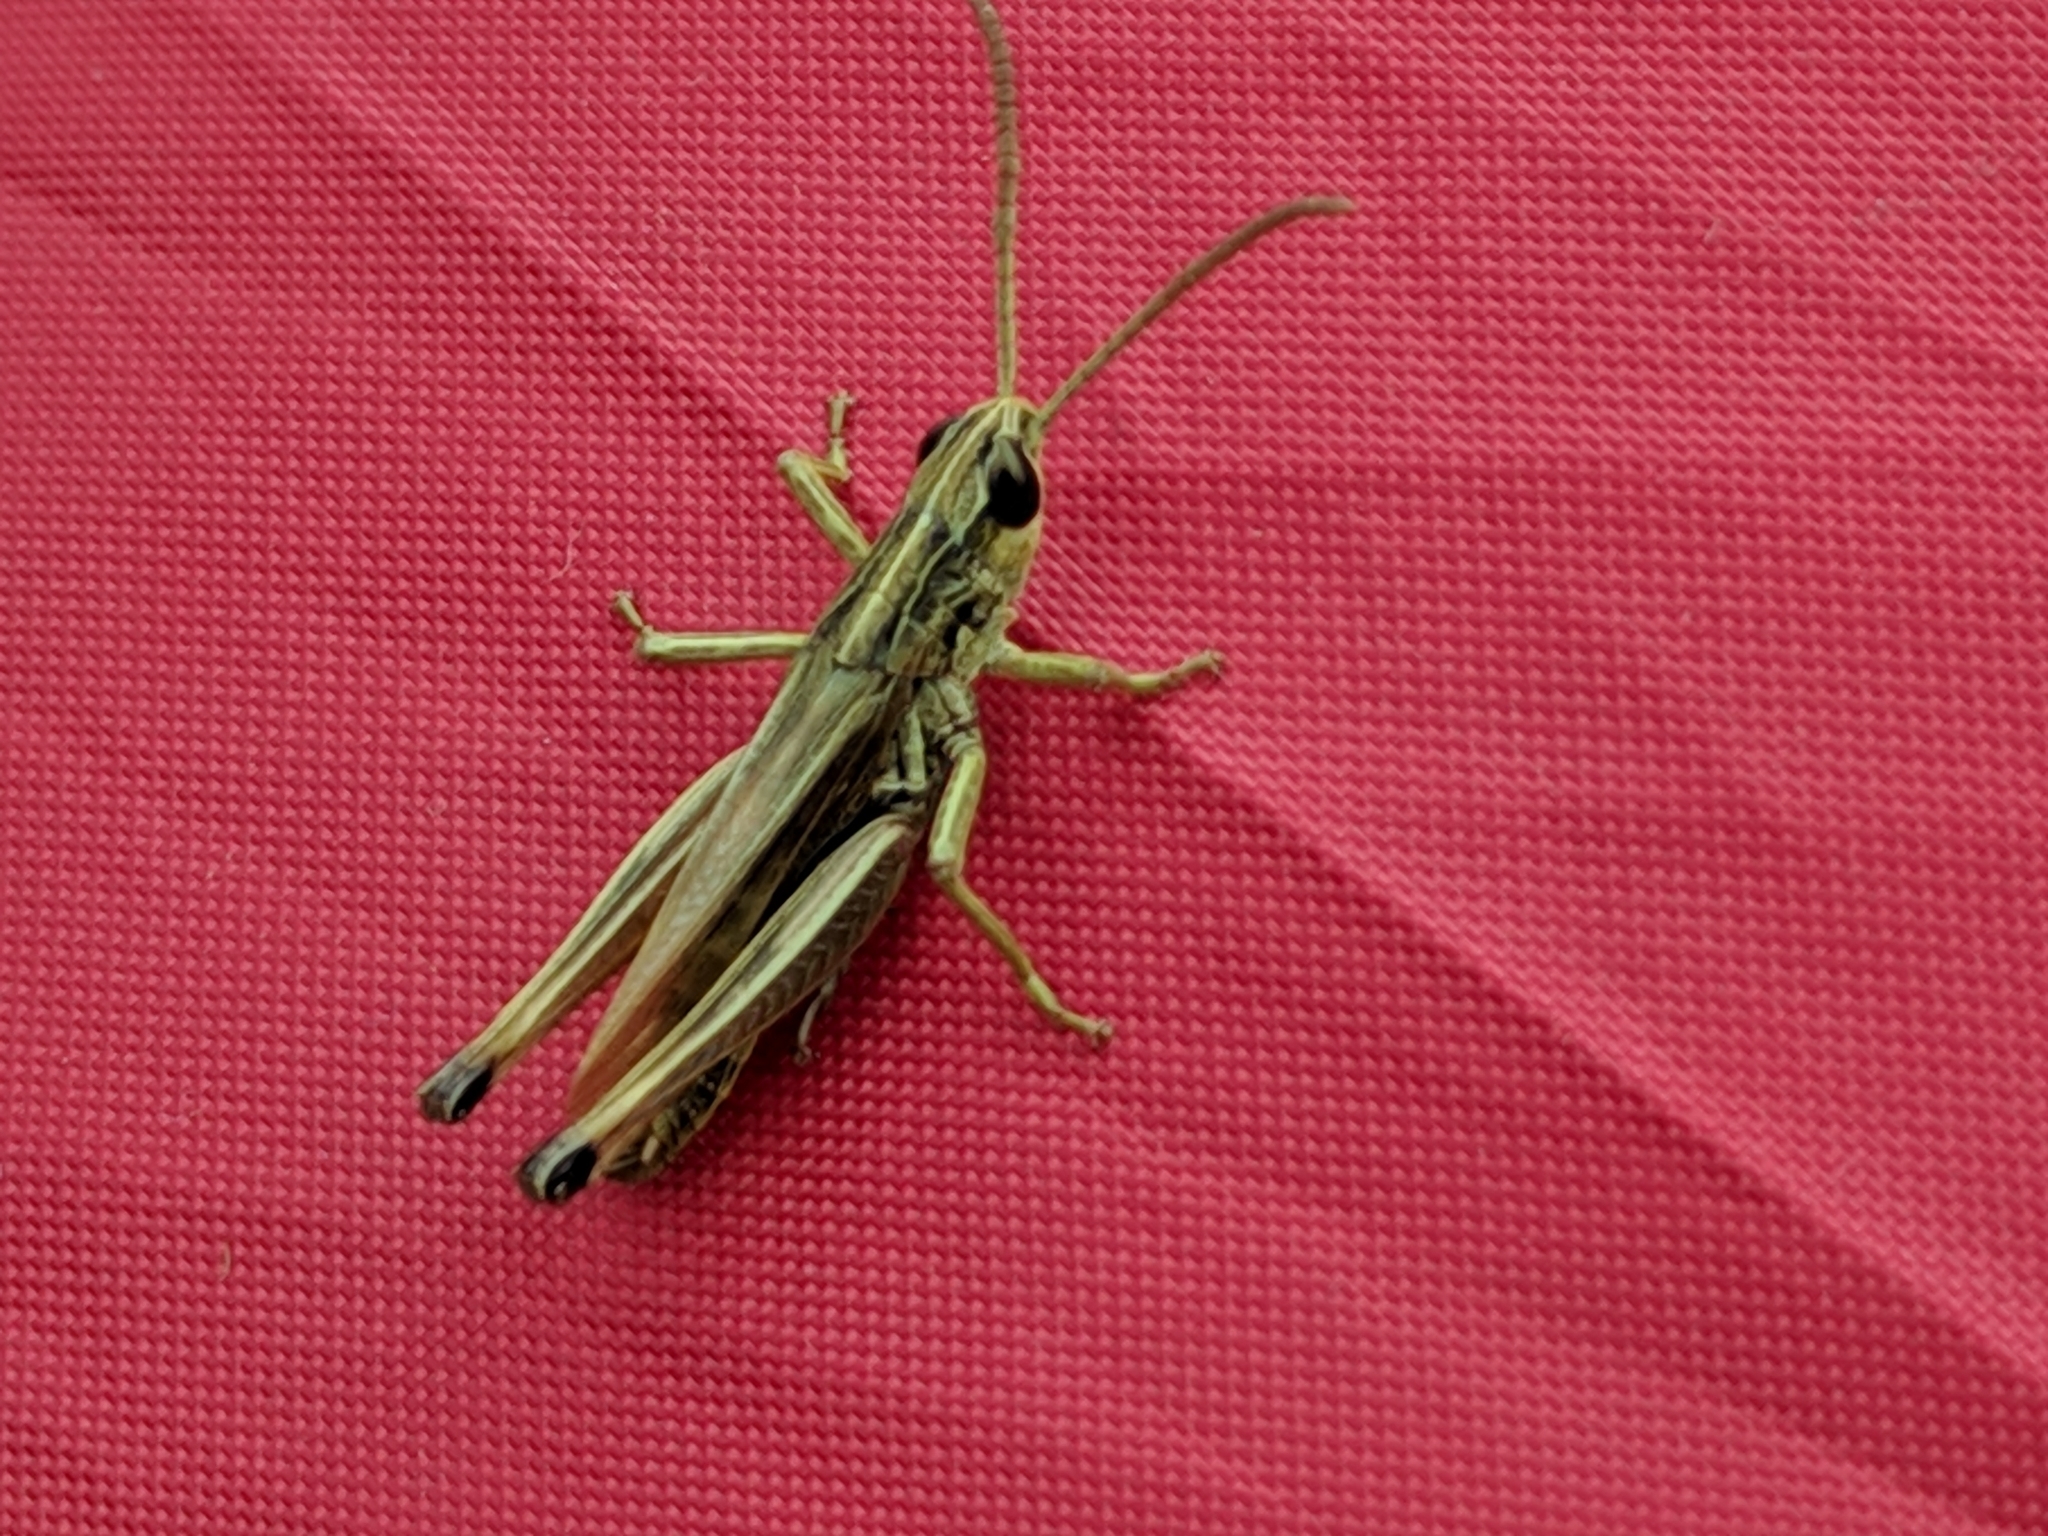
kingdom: Animalia
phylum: Arthropoda
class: Insecta
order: Orthoptera
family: Acrididae
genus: Pseudochorthippus
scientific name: Pseudochorthippus parallelus
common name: Meadow grasshopper
